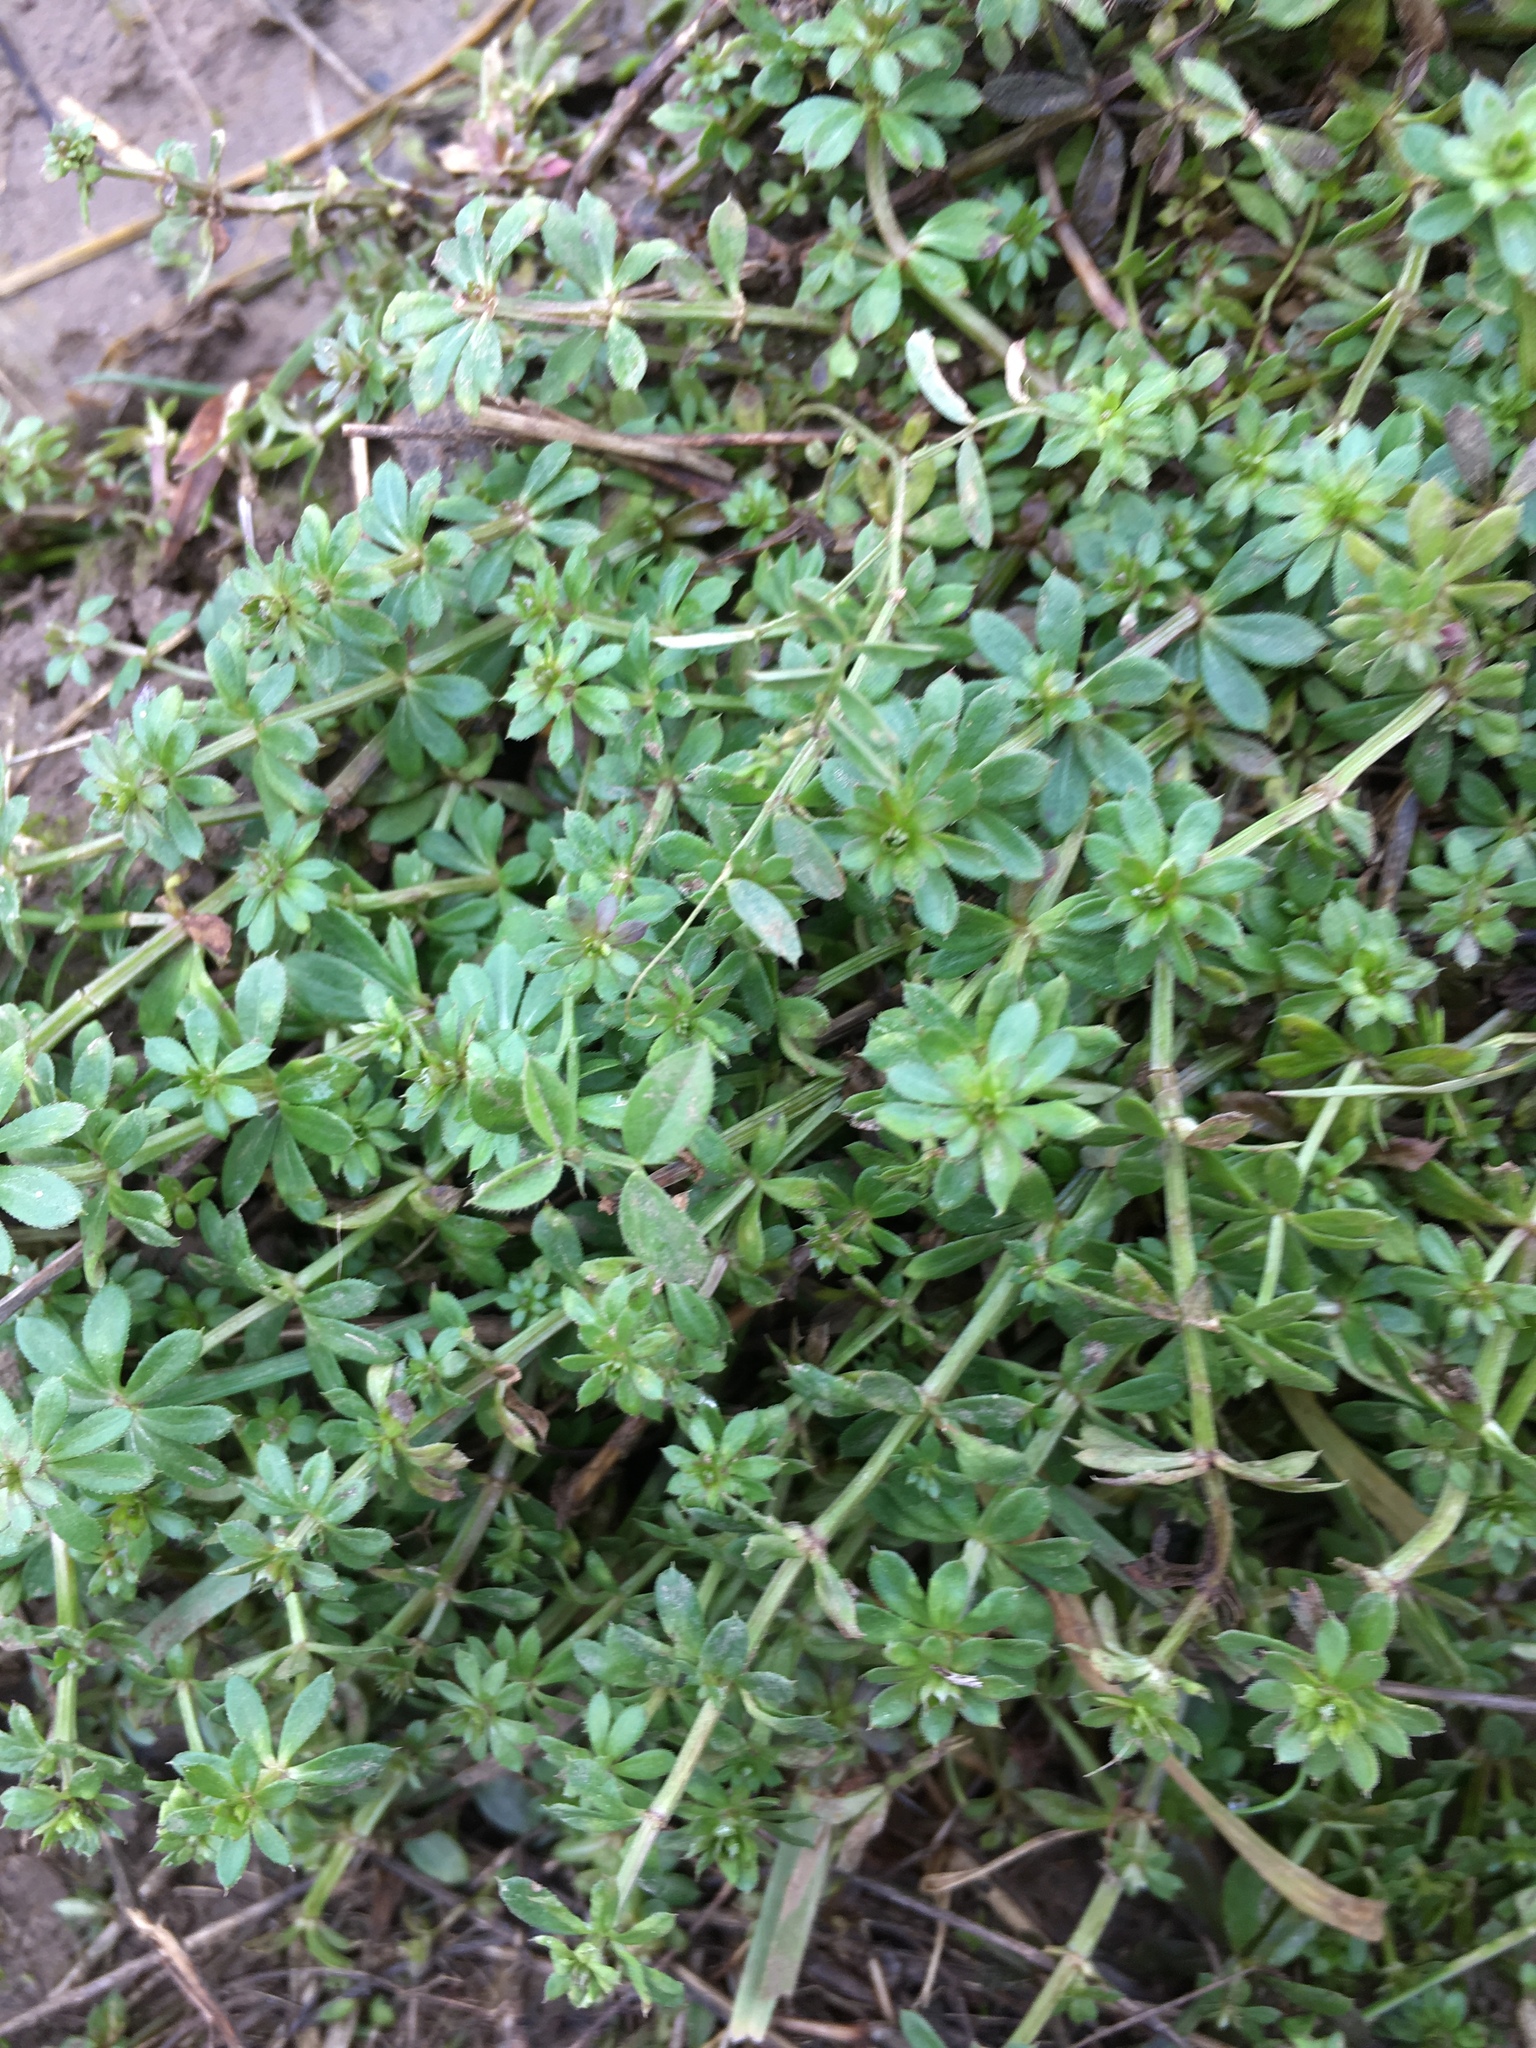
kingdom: Plantae
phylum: Tracheophyta
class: Magnoliopsida
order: Gentianales
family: Rubiaceae
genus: Galium
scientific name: Galium aparine
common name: Cleavers
